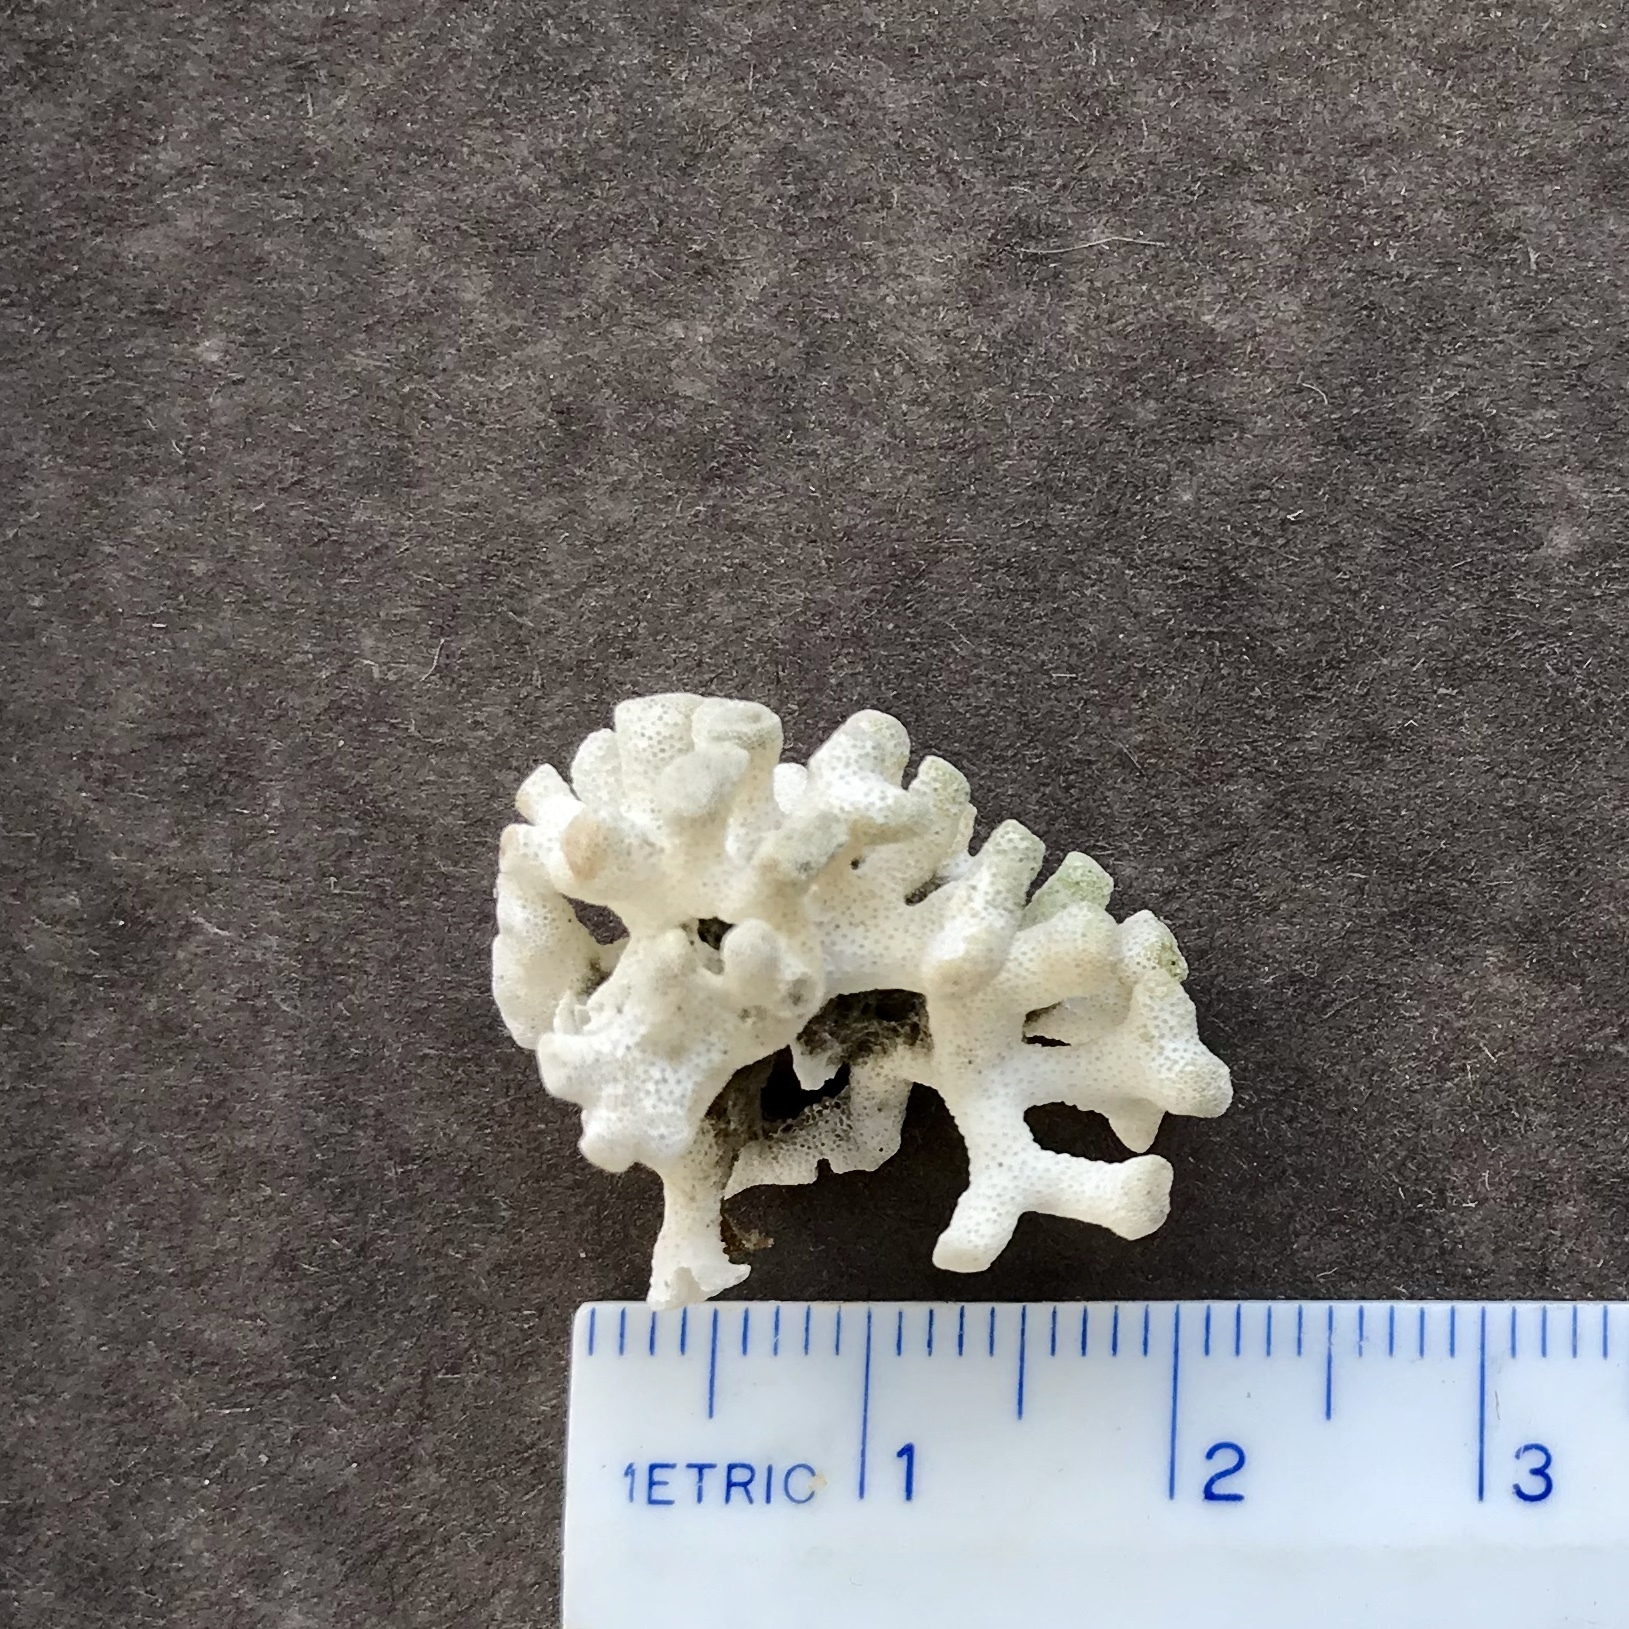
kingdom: Animalia
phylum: Bryozoa
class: Stenolaemata
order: Cyclostomatida
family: Heteroporidae
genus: Heteropora
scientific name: Heteropora pacifica
